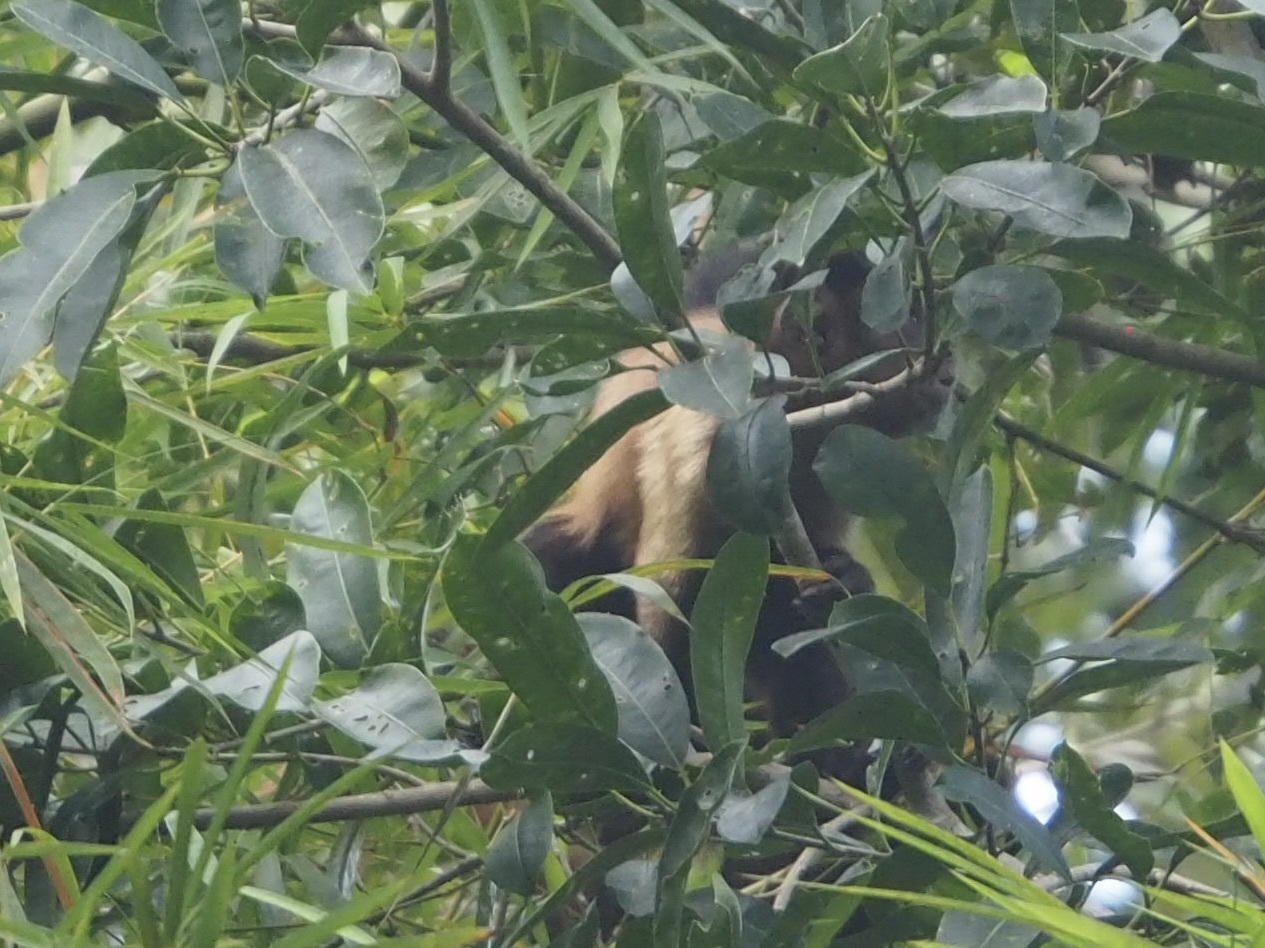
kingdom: Animalia
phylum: Chordata
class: Mammalia
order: Primates
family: Cebidae
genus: Sapajus
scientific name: Sapajus apella
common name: Tufted capuchin
